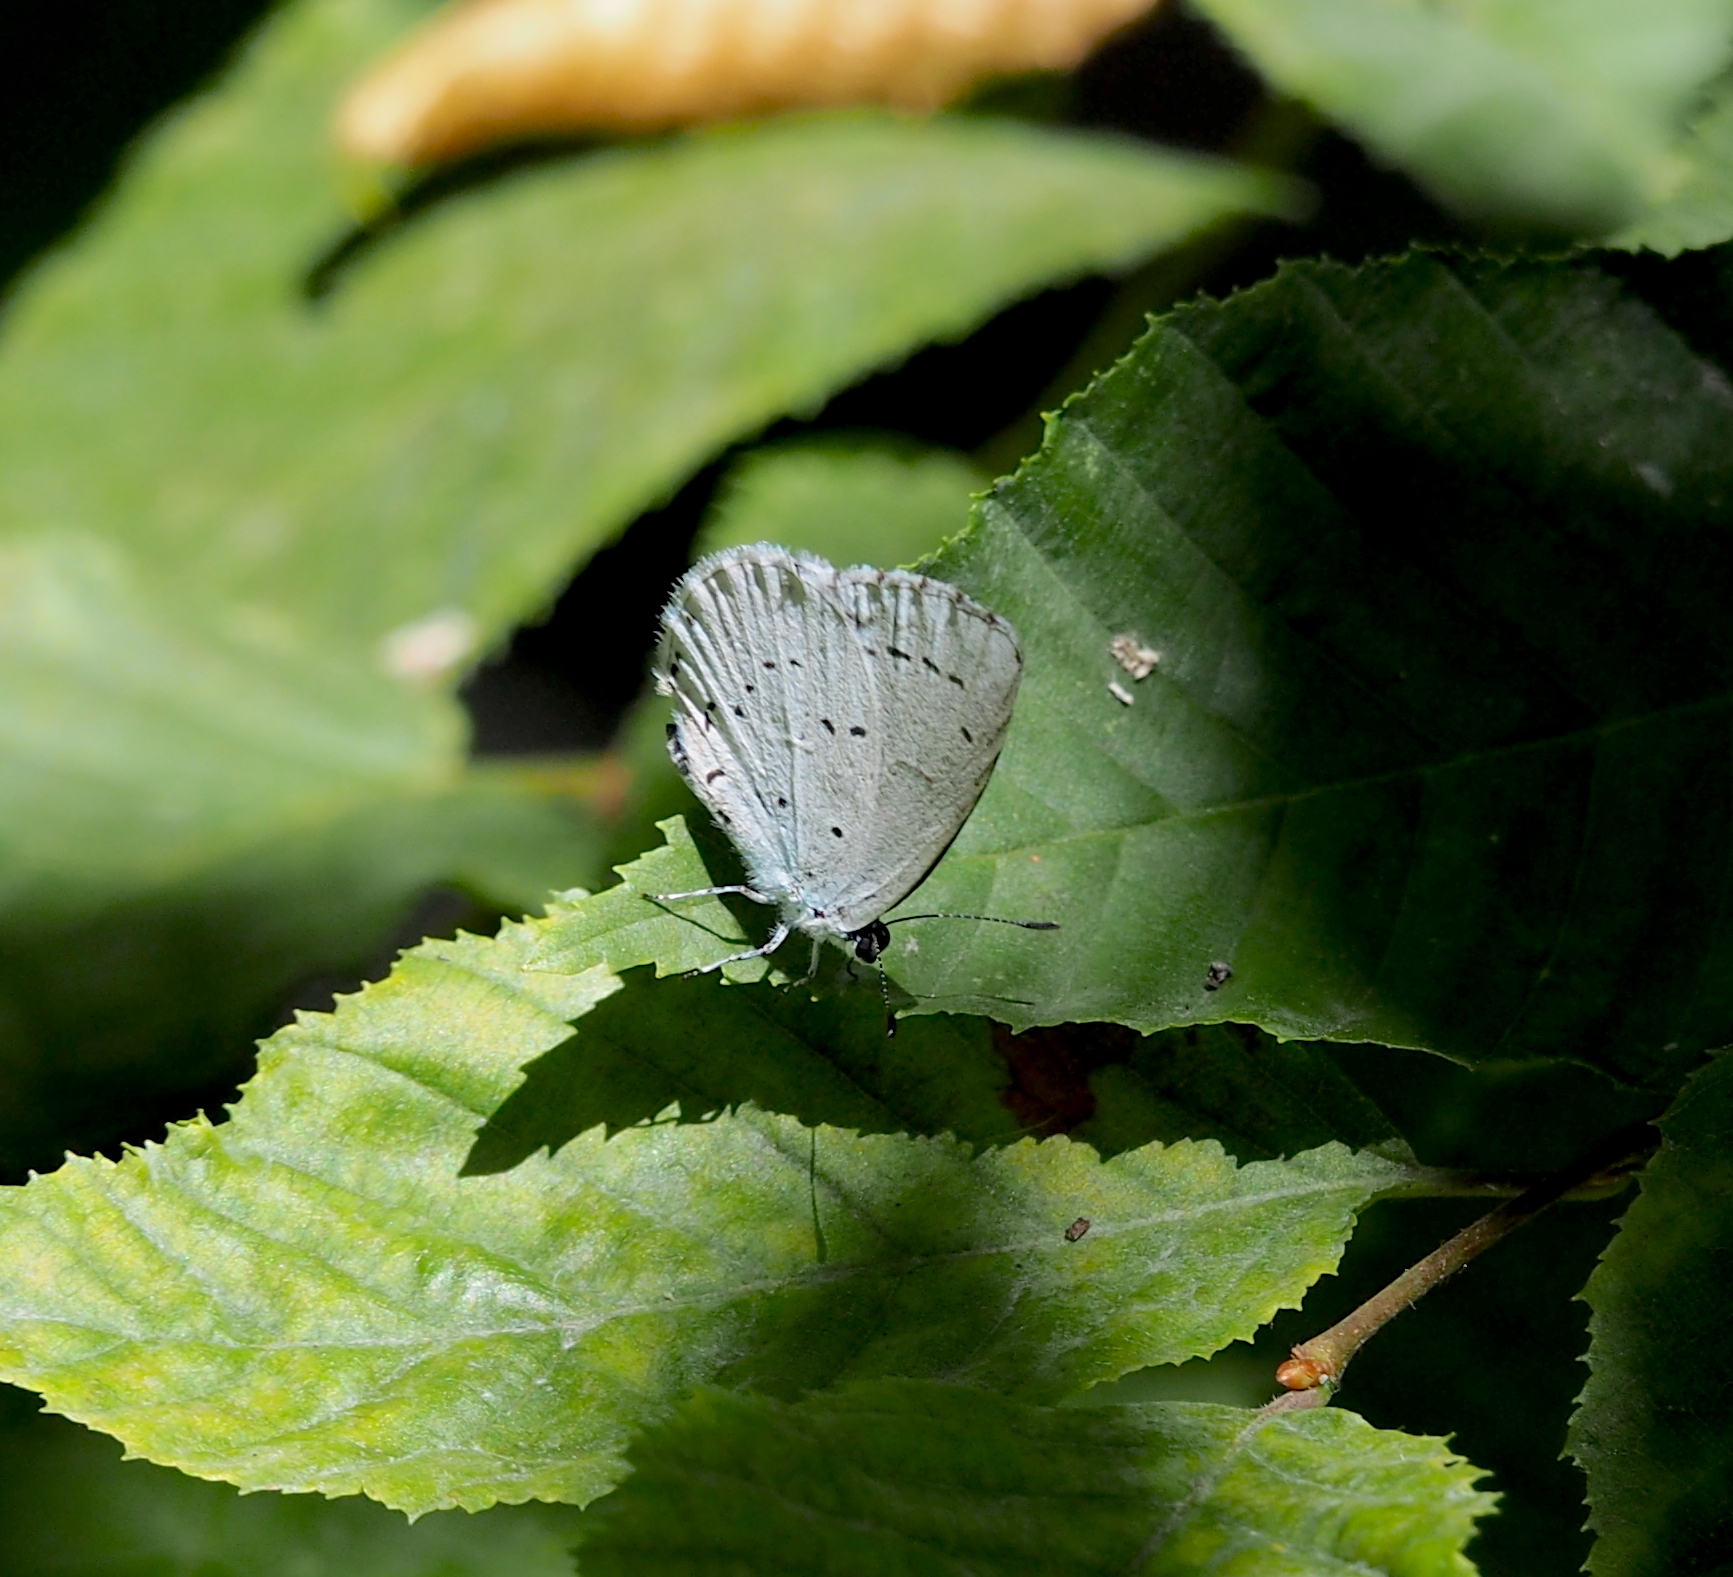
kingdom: Animalia
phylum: Arthropoda
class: Insecta
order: Lepidoptera
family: Lycaenidae
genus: Celastrina
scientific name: Celastrina argiolus
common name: Holly blue
